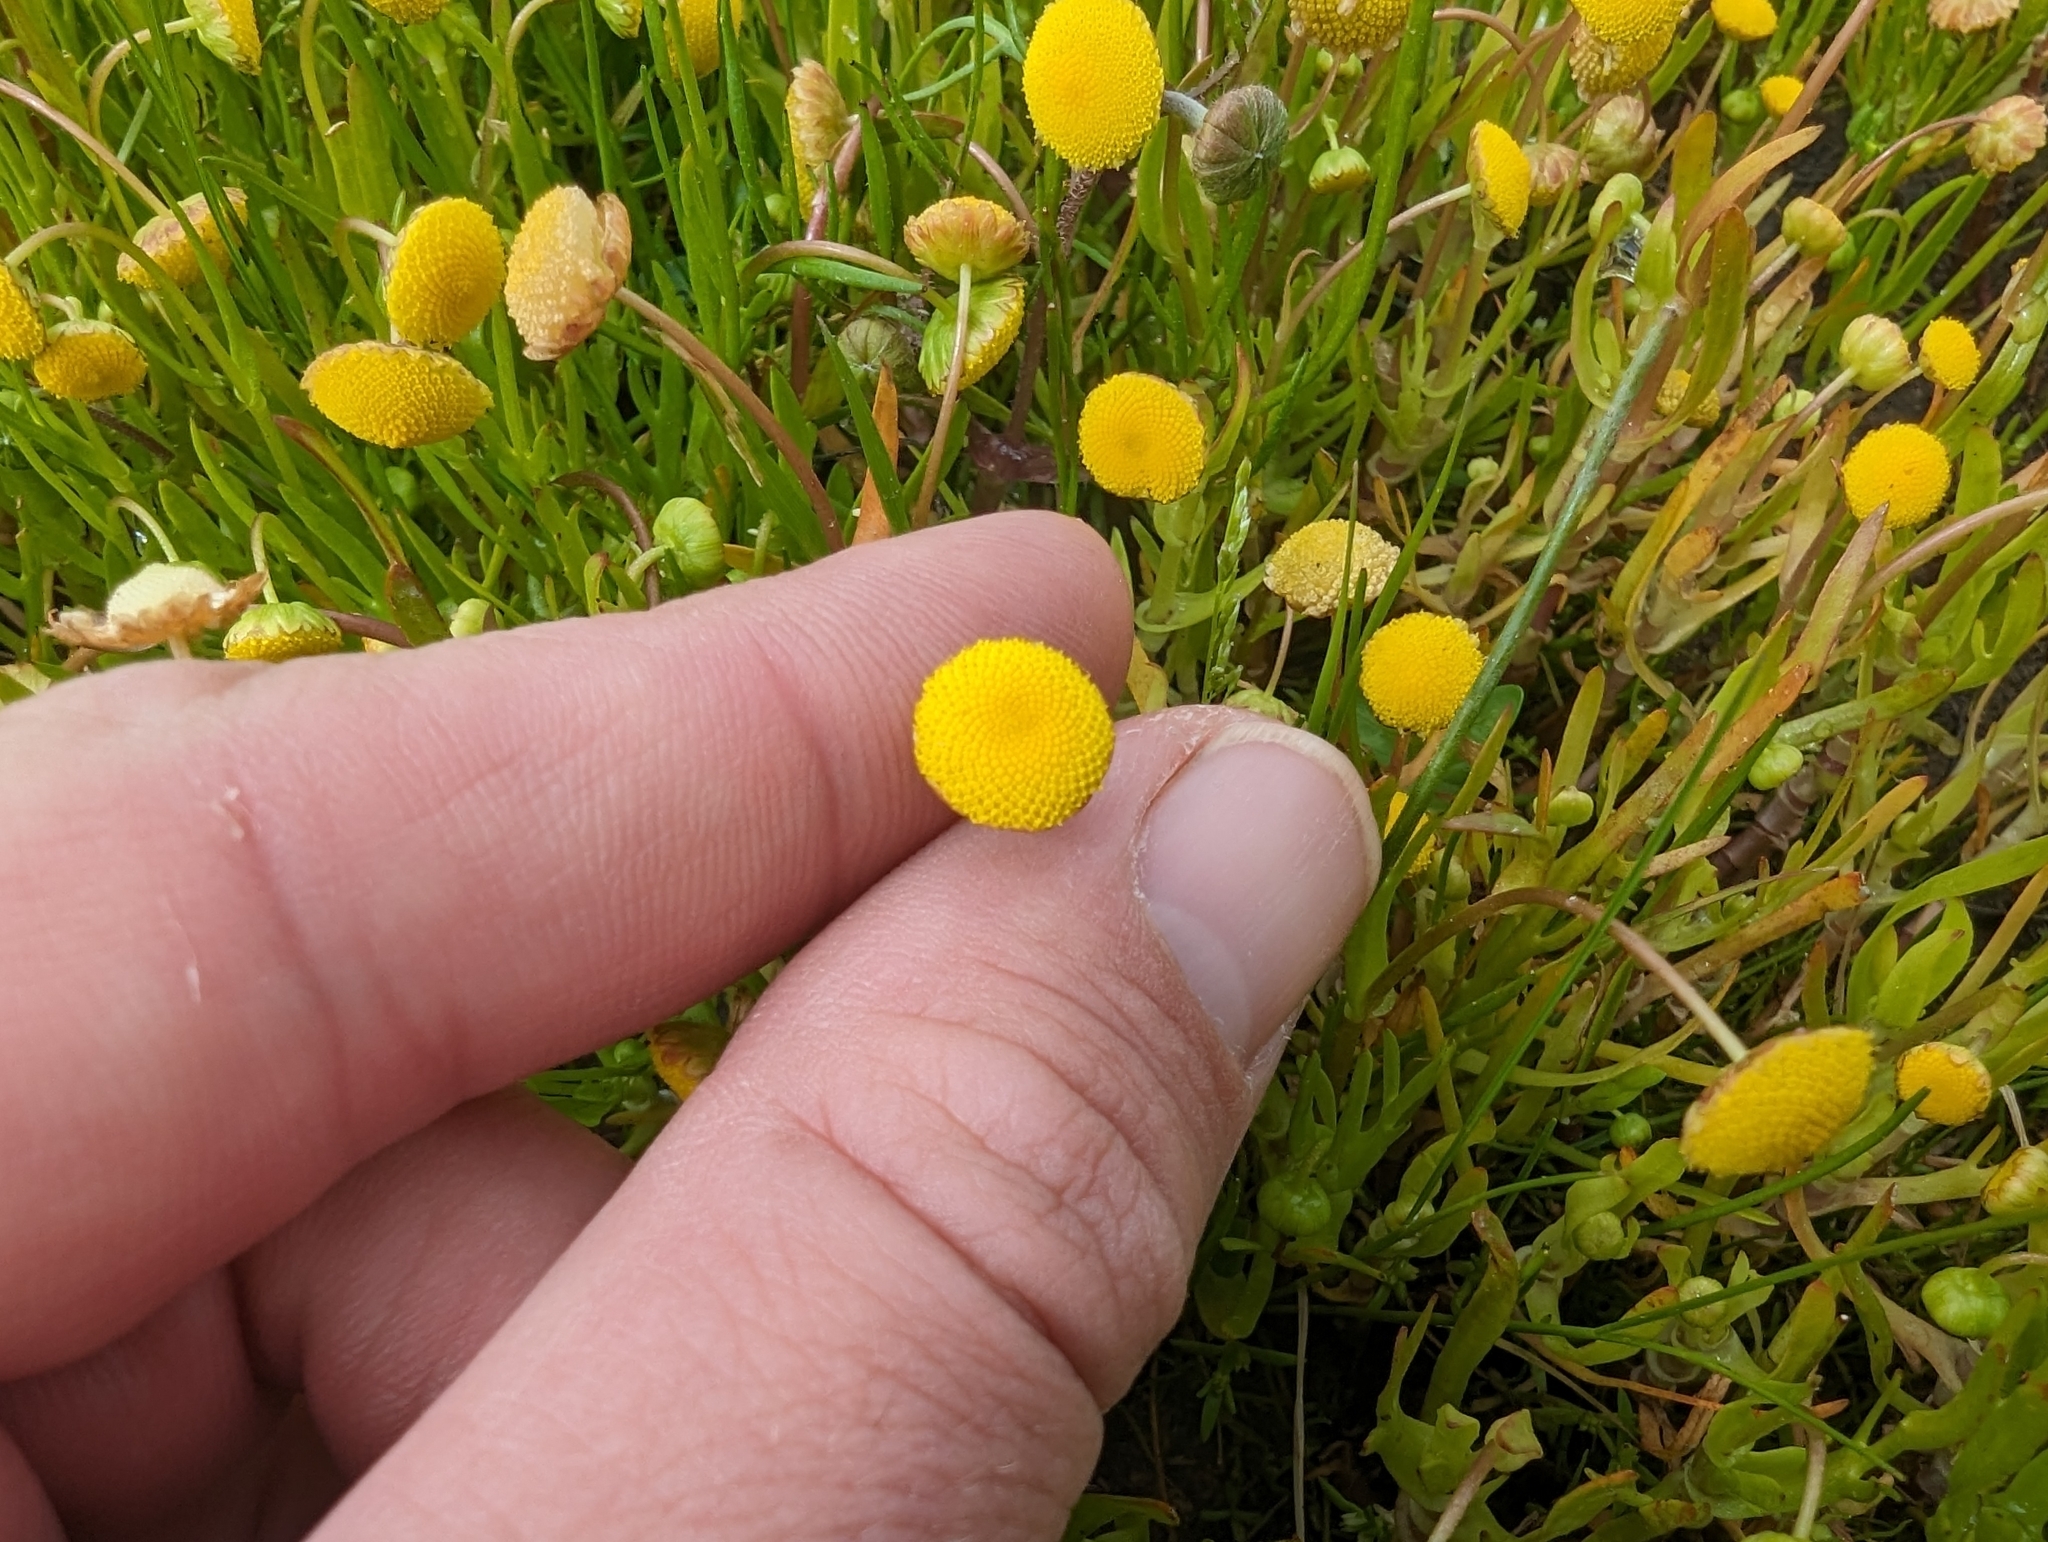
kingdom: Plantae
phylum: Tracheophyta
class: Magnoliopsida
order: Asterales
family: Asteraceae
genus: Cotula
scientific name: Cotula coronopifolia
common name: Buttonweed
